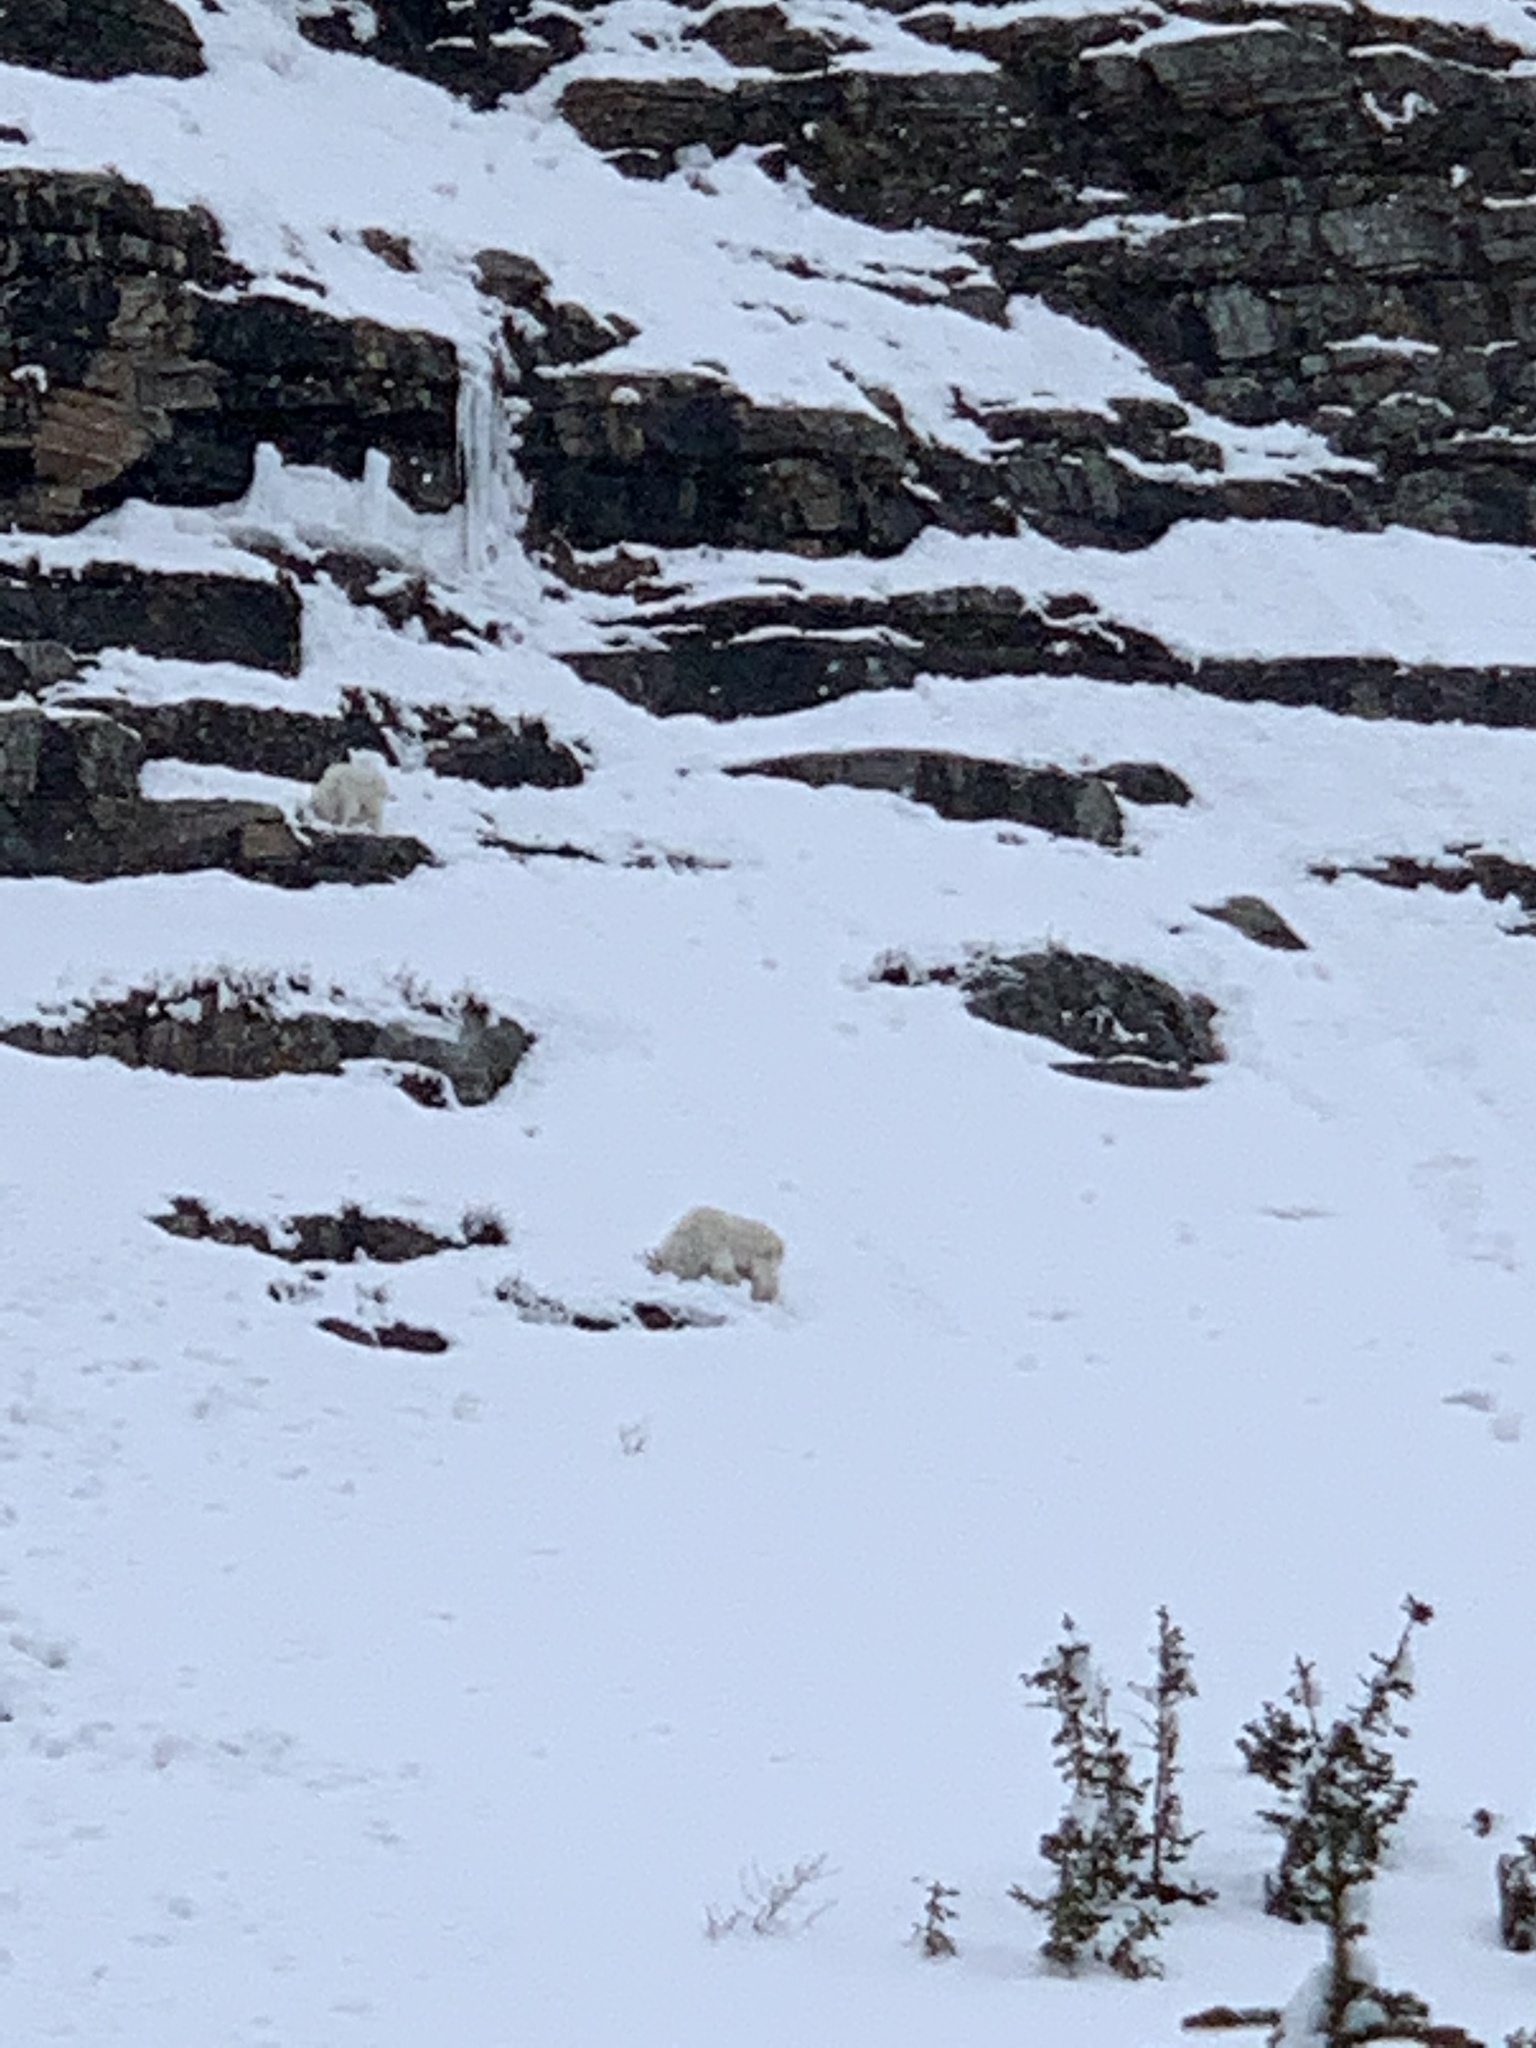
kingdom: Animalia
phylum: Chordata
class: Mammalia
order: Artiodactyla
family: Bovidae
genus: Oreamnos
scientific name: Oreamnos americanus
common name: Mountain goat
